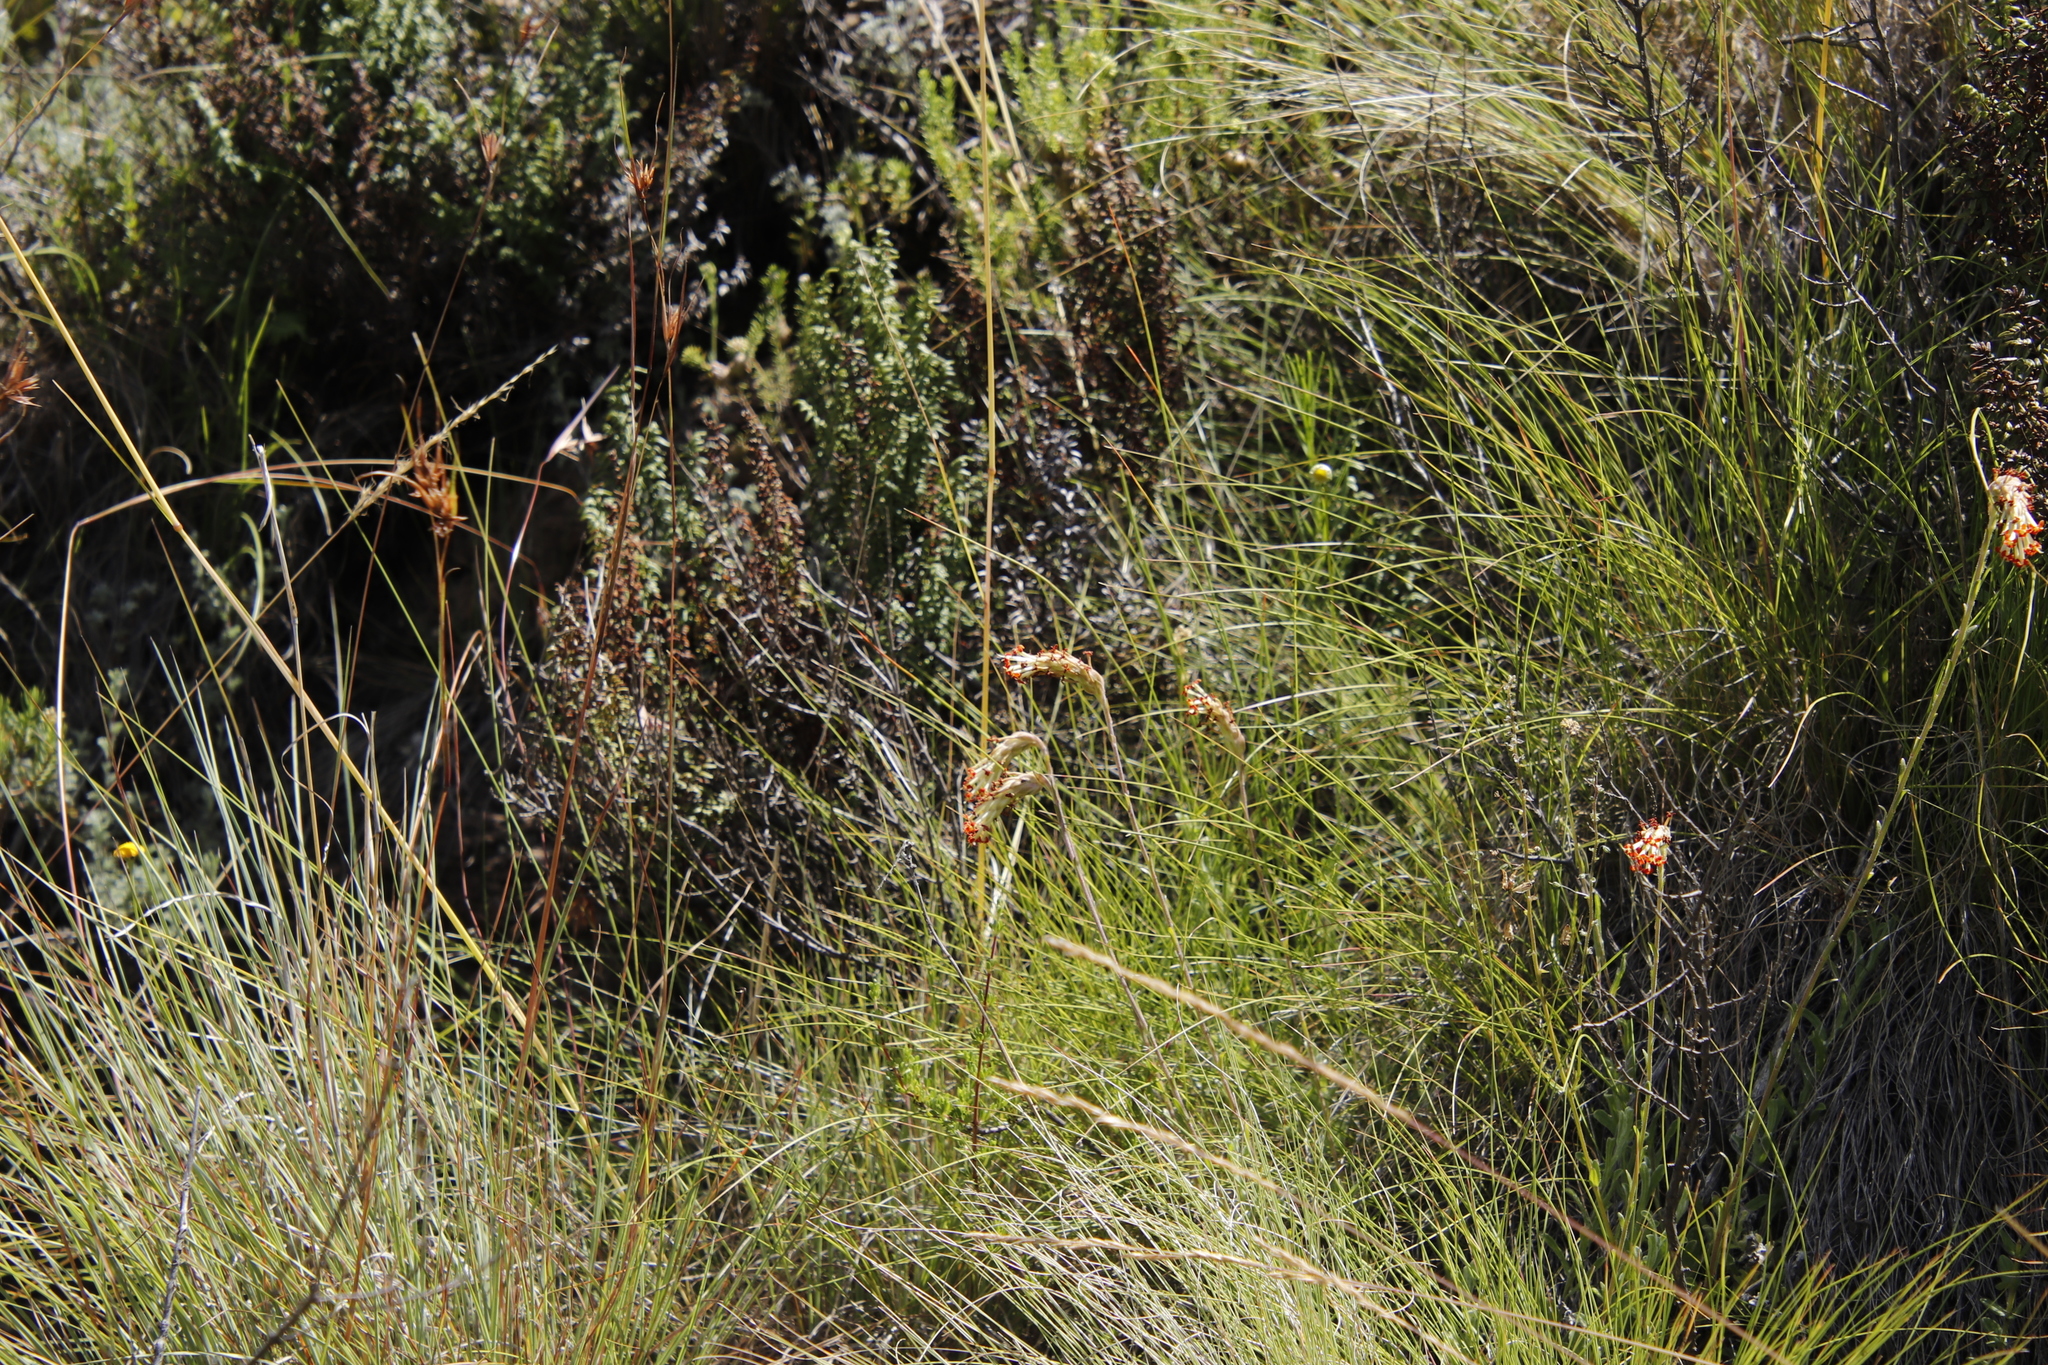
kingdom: Plantae
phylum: Tracheophyta
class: Magnoliopsida
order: Lamiales
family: Scrophulariaceae
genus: Glumicalyx
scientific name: Glumicalyx nutans
